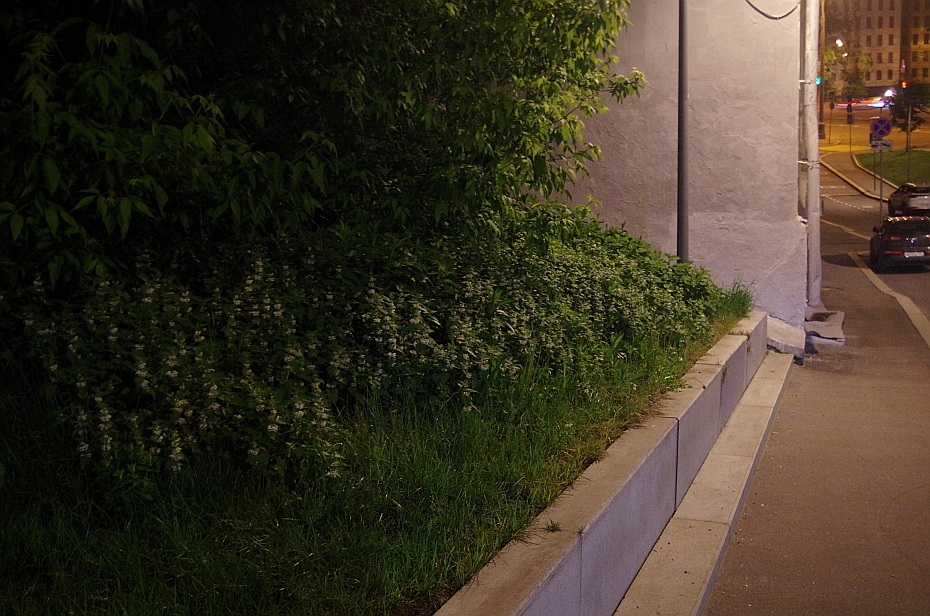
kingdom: Plantae
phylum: Tracheophyta
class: Magnoliopsida
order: Lamiales
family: Lamiaceae
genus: Lamium
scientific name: Lamium album
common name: White dead-nettle
